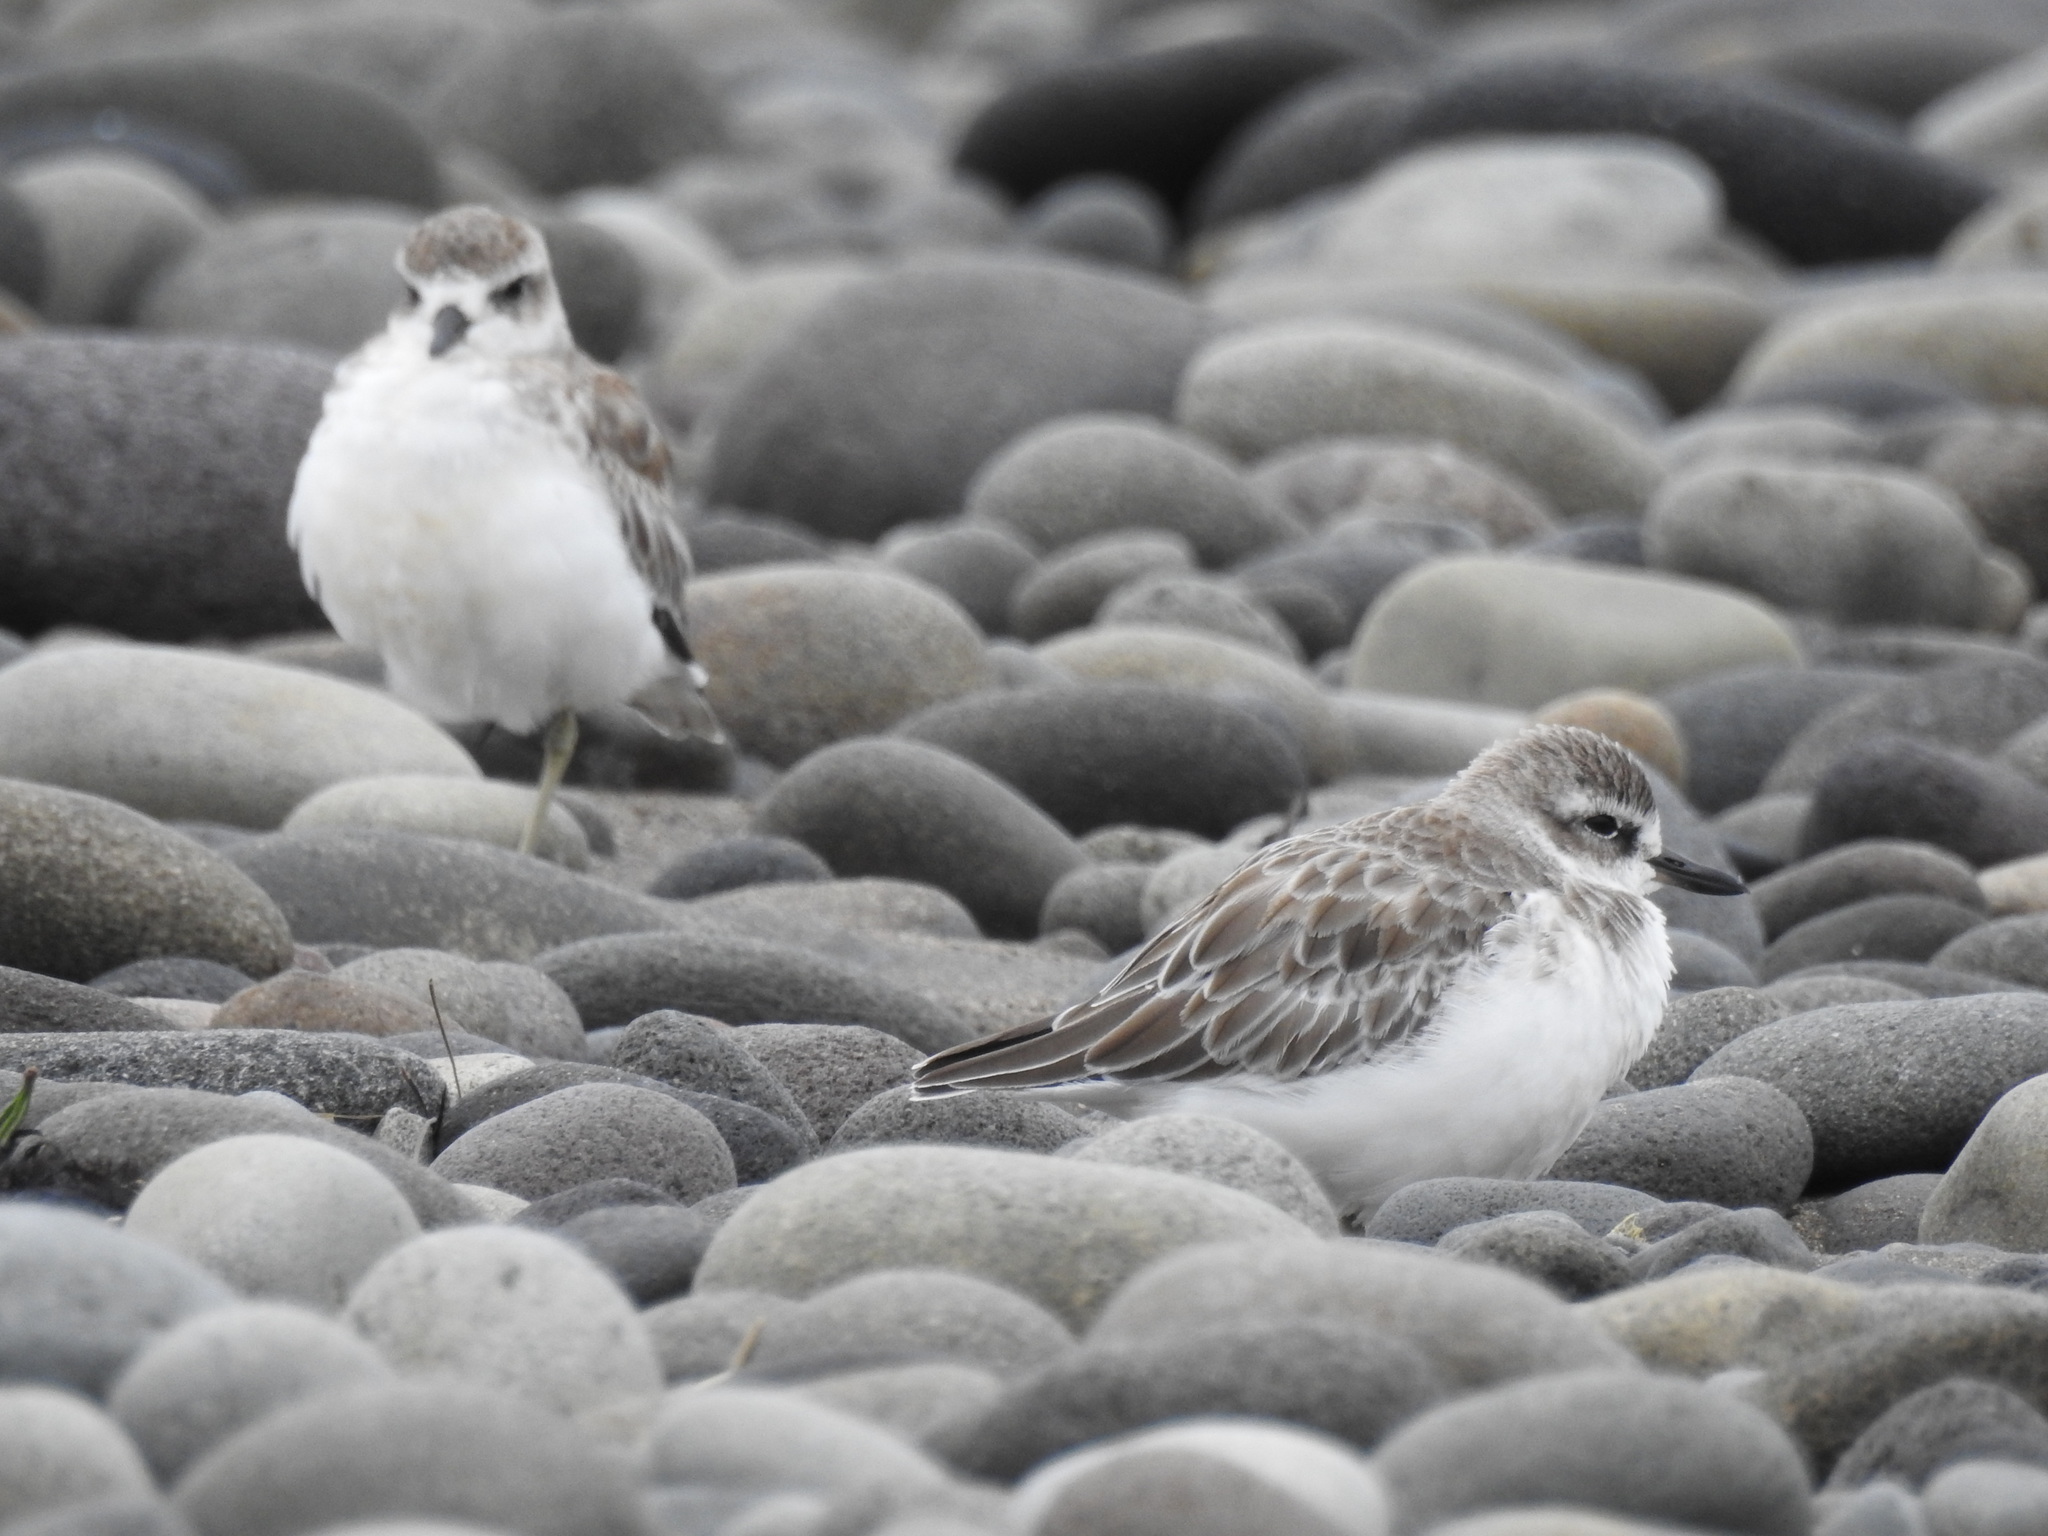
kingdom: Animalia
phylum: Chordata
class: Aves
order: Charadriiformes
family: Charadriidae
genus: Anarhynchus
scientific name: Anarhynchus
